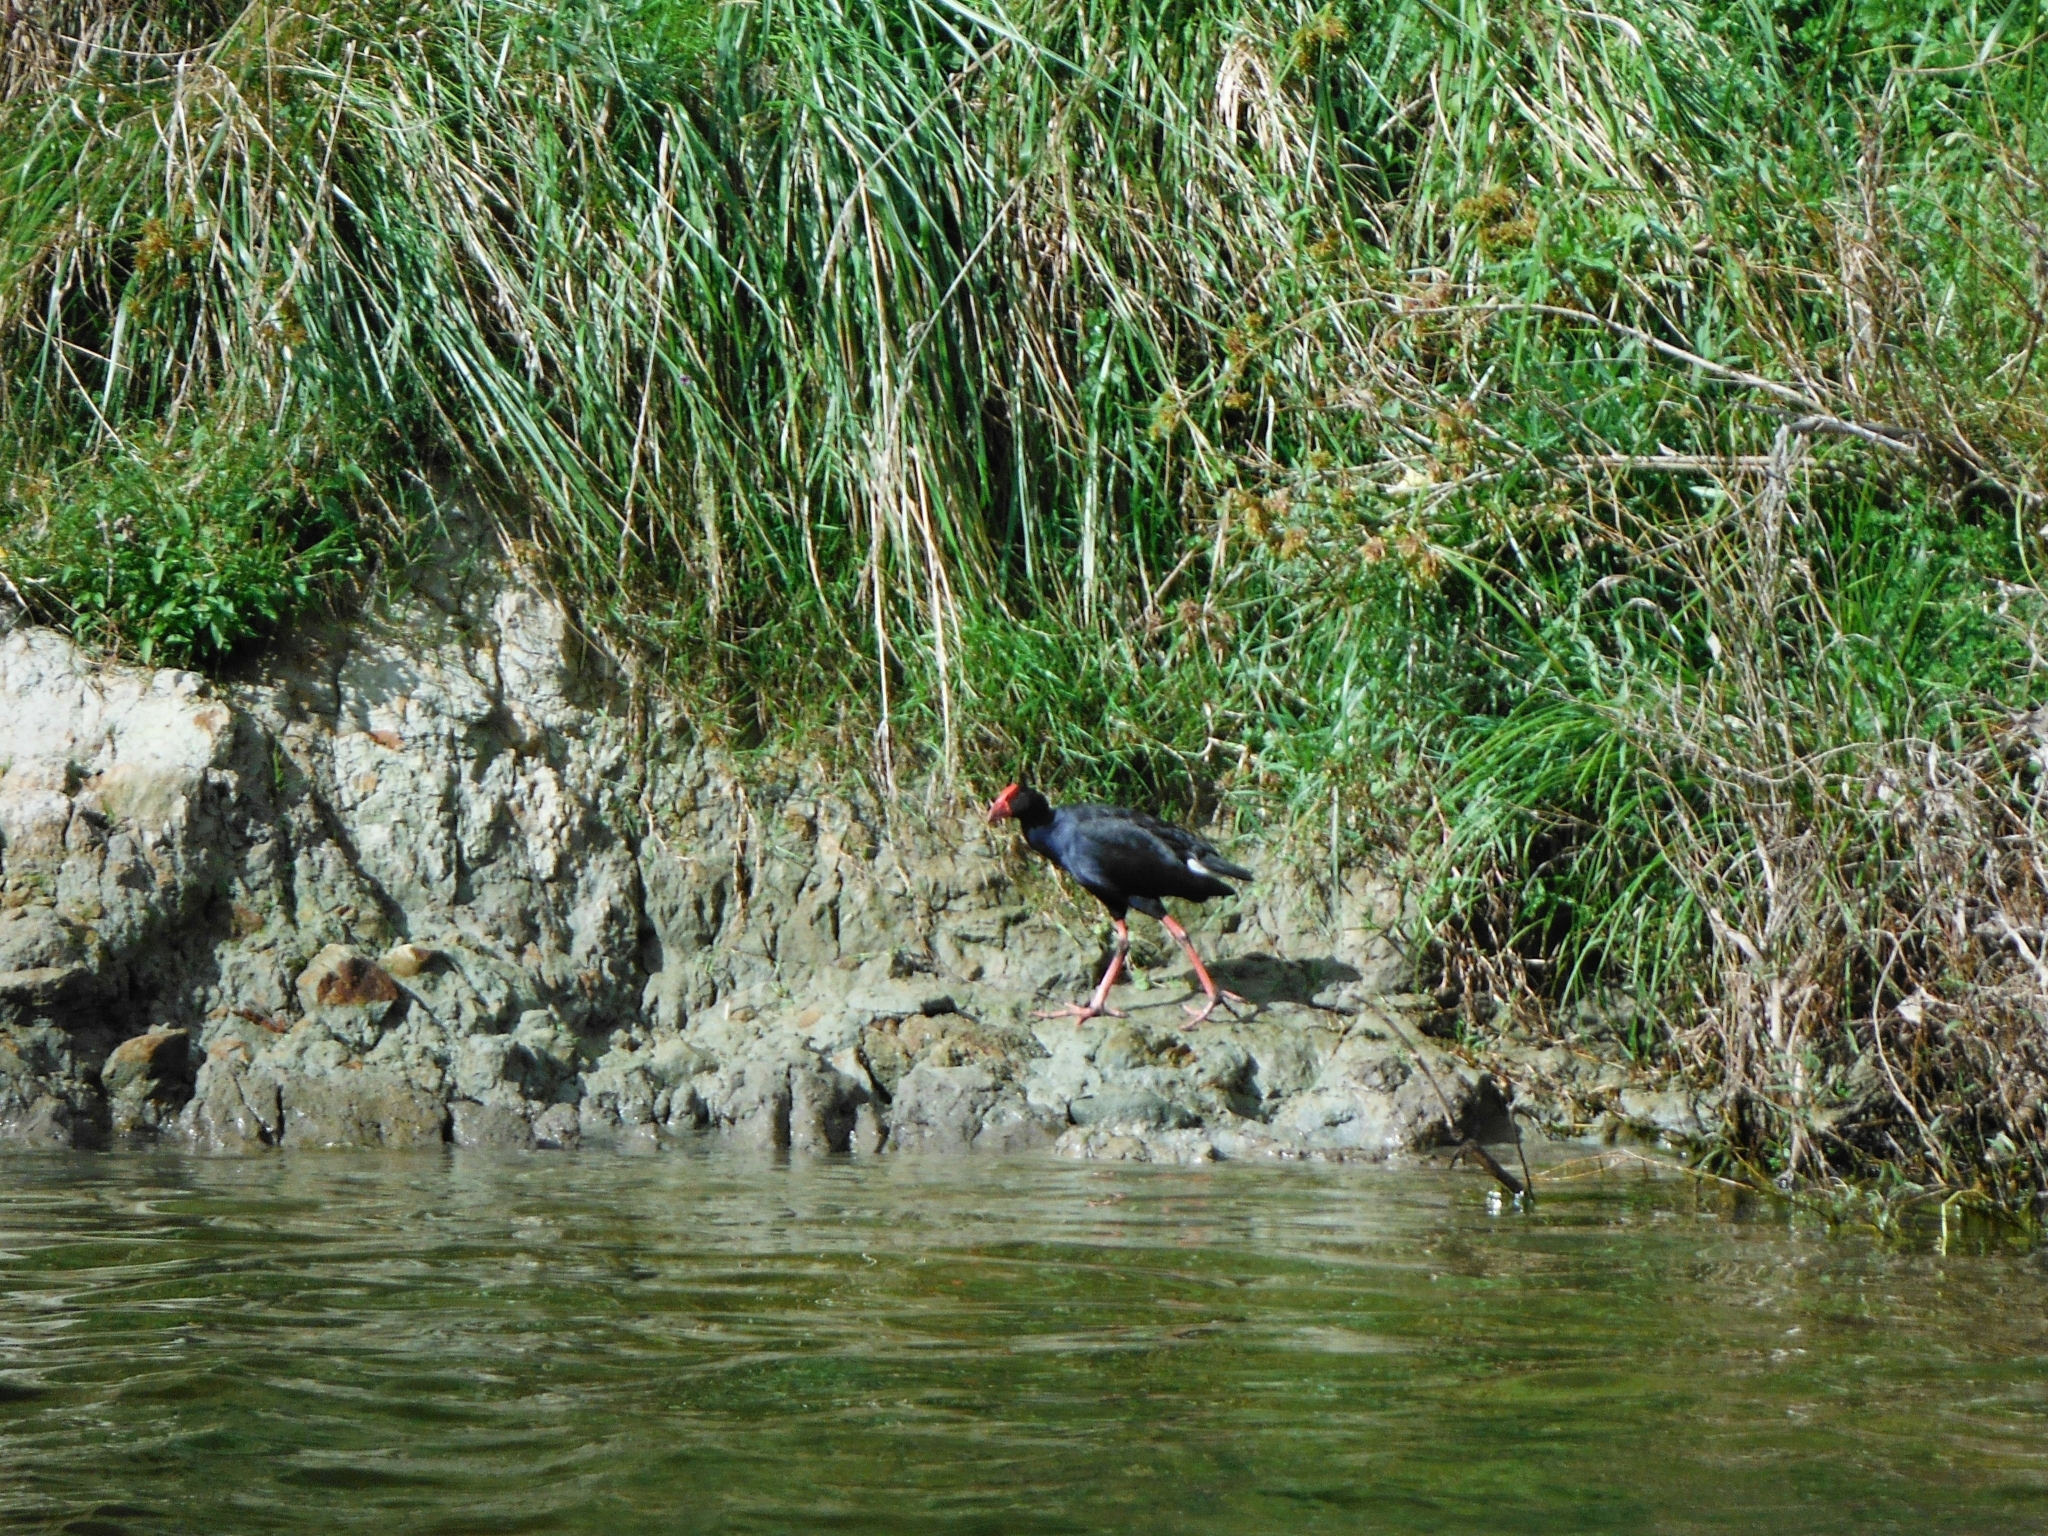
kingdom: Animalia
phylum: Chordata
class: Aves
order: Gruiformes
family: Rallidae
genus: Porphyrio
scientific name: Porphyrio melanotus
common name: Australasian swamphen
